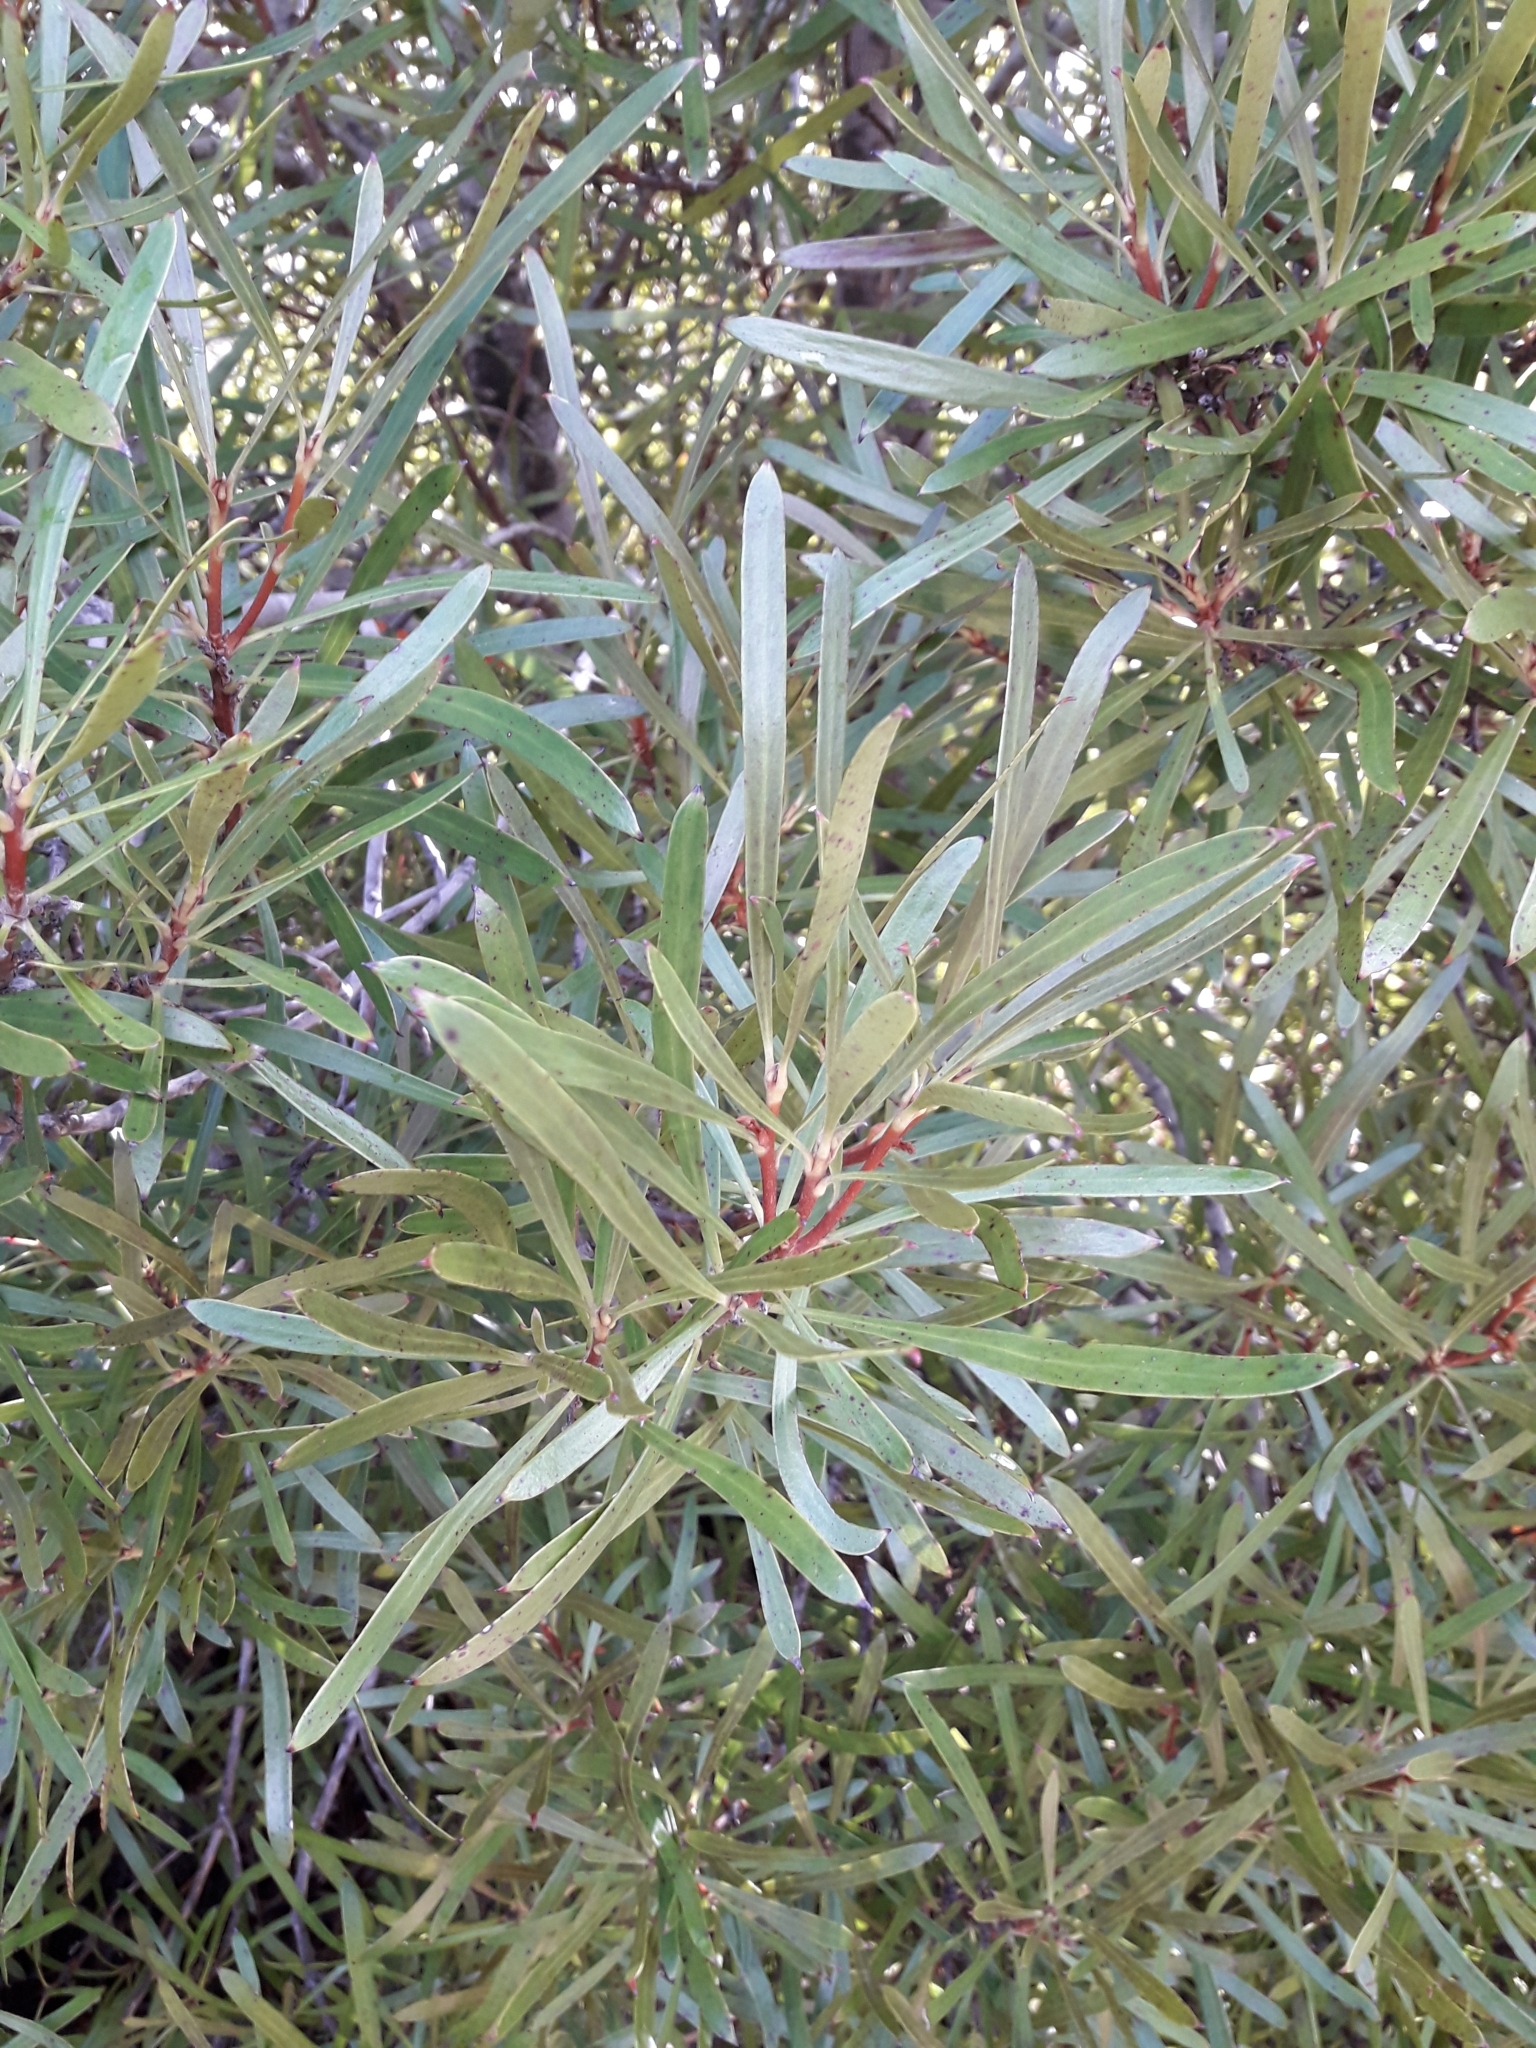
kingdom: Plantae
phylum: Tracheophyta
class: Magnoliopsida
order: Proteales
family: Proteaceae
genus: Toronia
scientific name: Toronia toru
